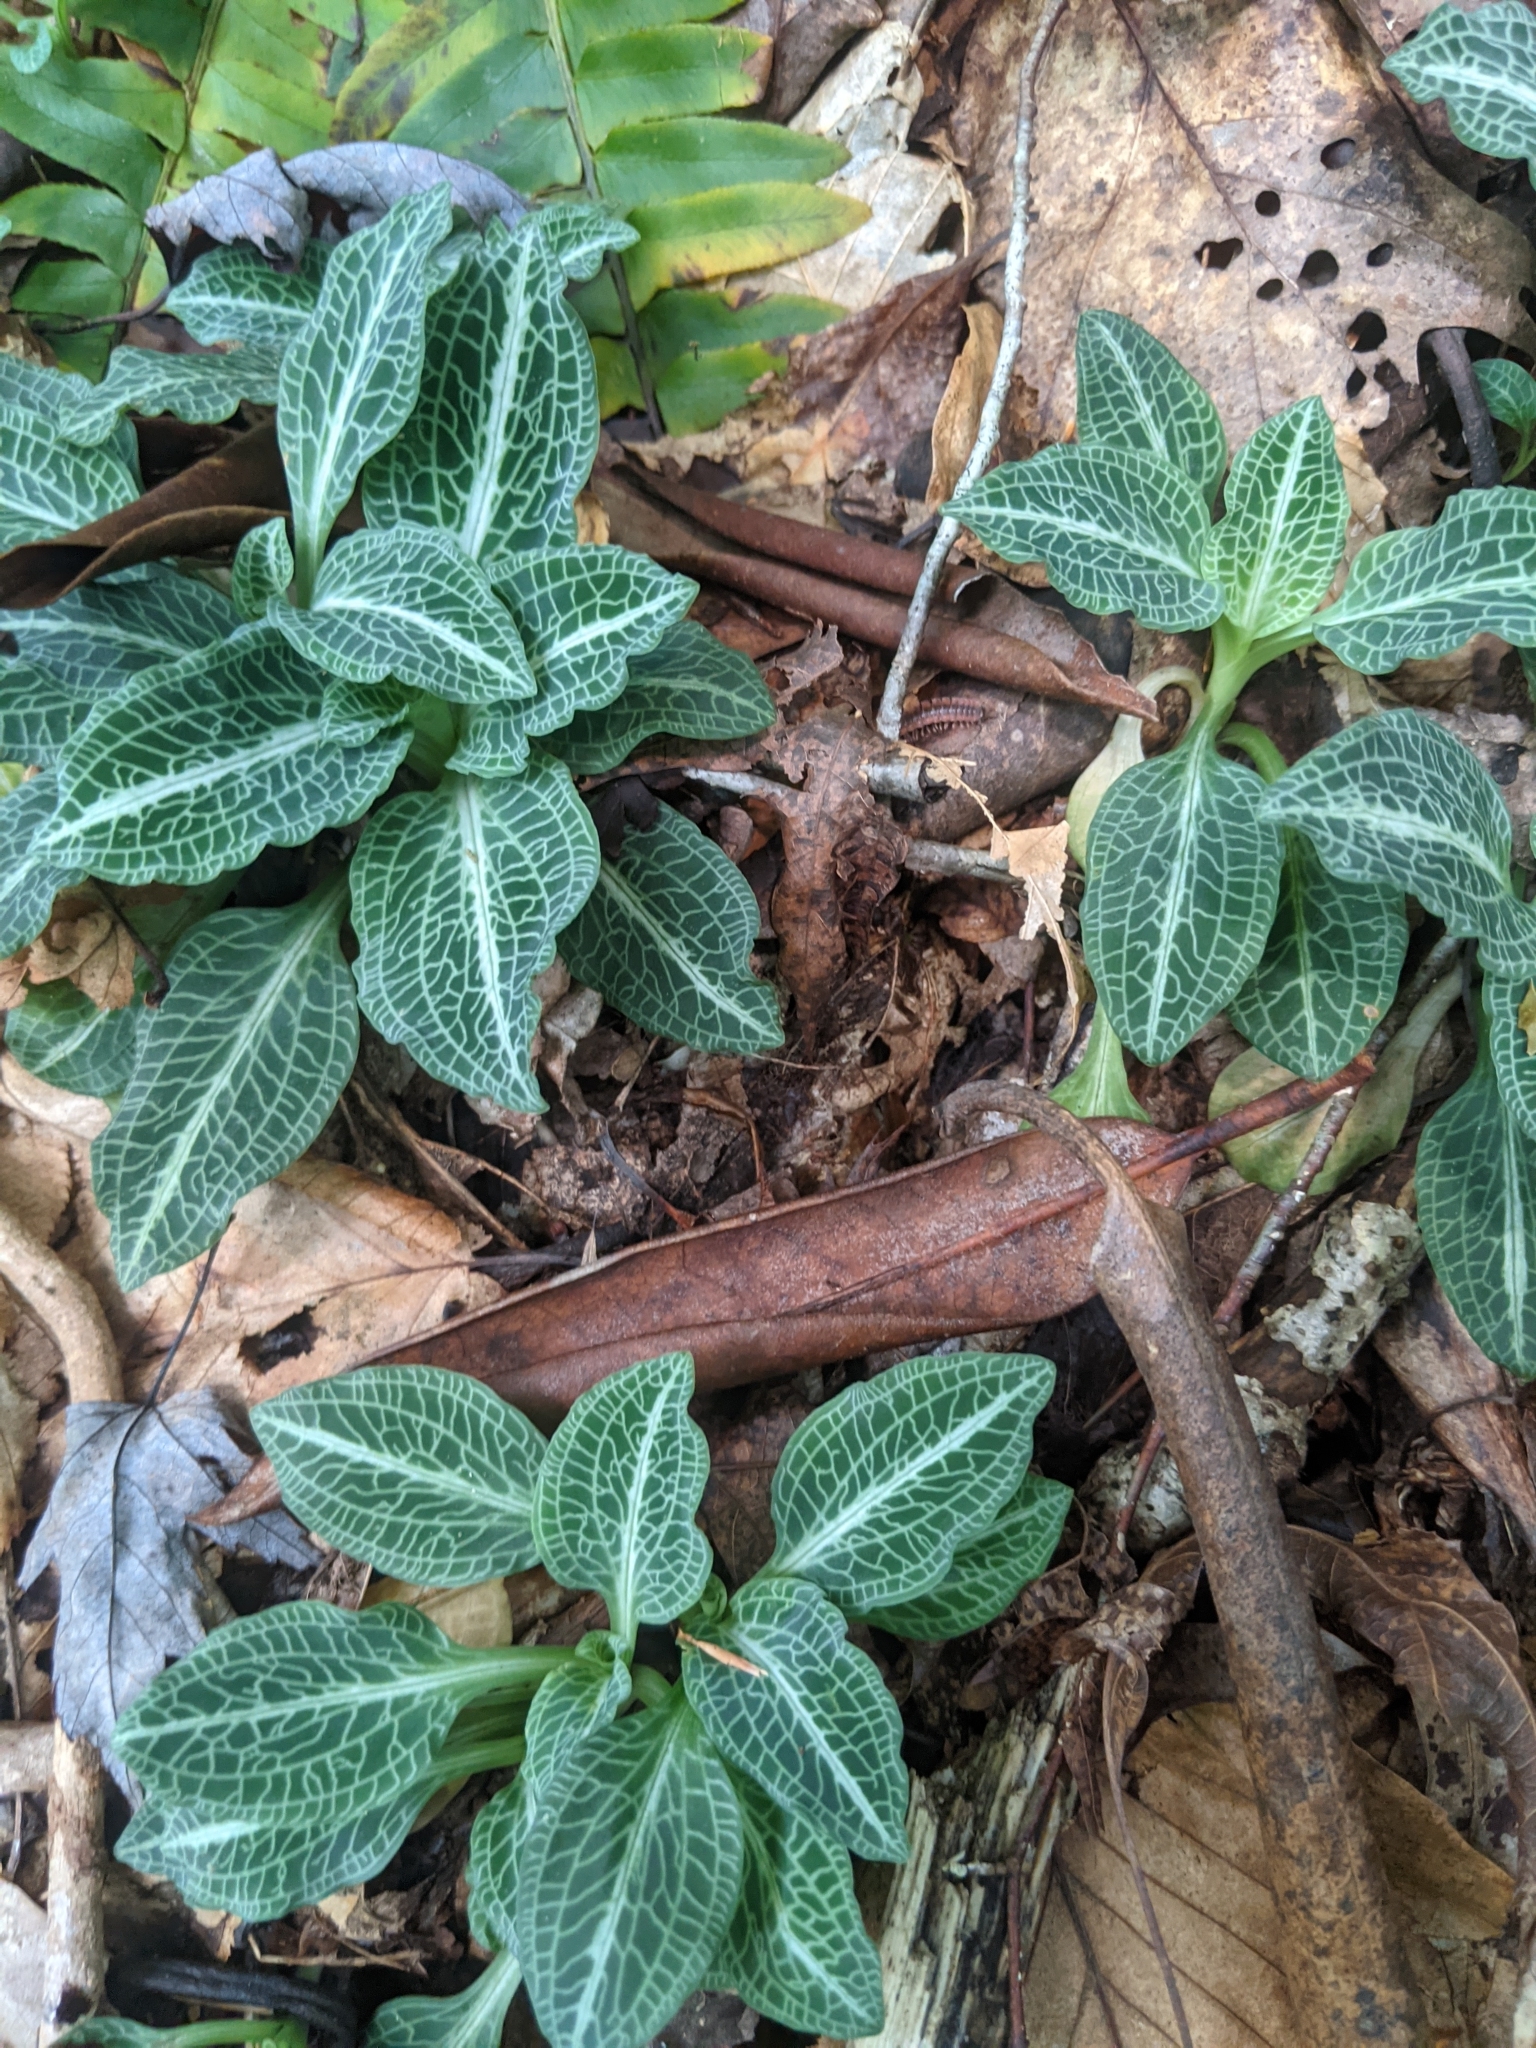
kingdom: Plantae
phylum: Tracheophyta
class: Liliopsida
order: Asparagales
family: Orchidaceae
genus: Goodyera
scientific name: Goodyera pubescens
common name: Downy rattlesnake-plantain
